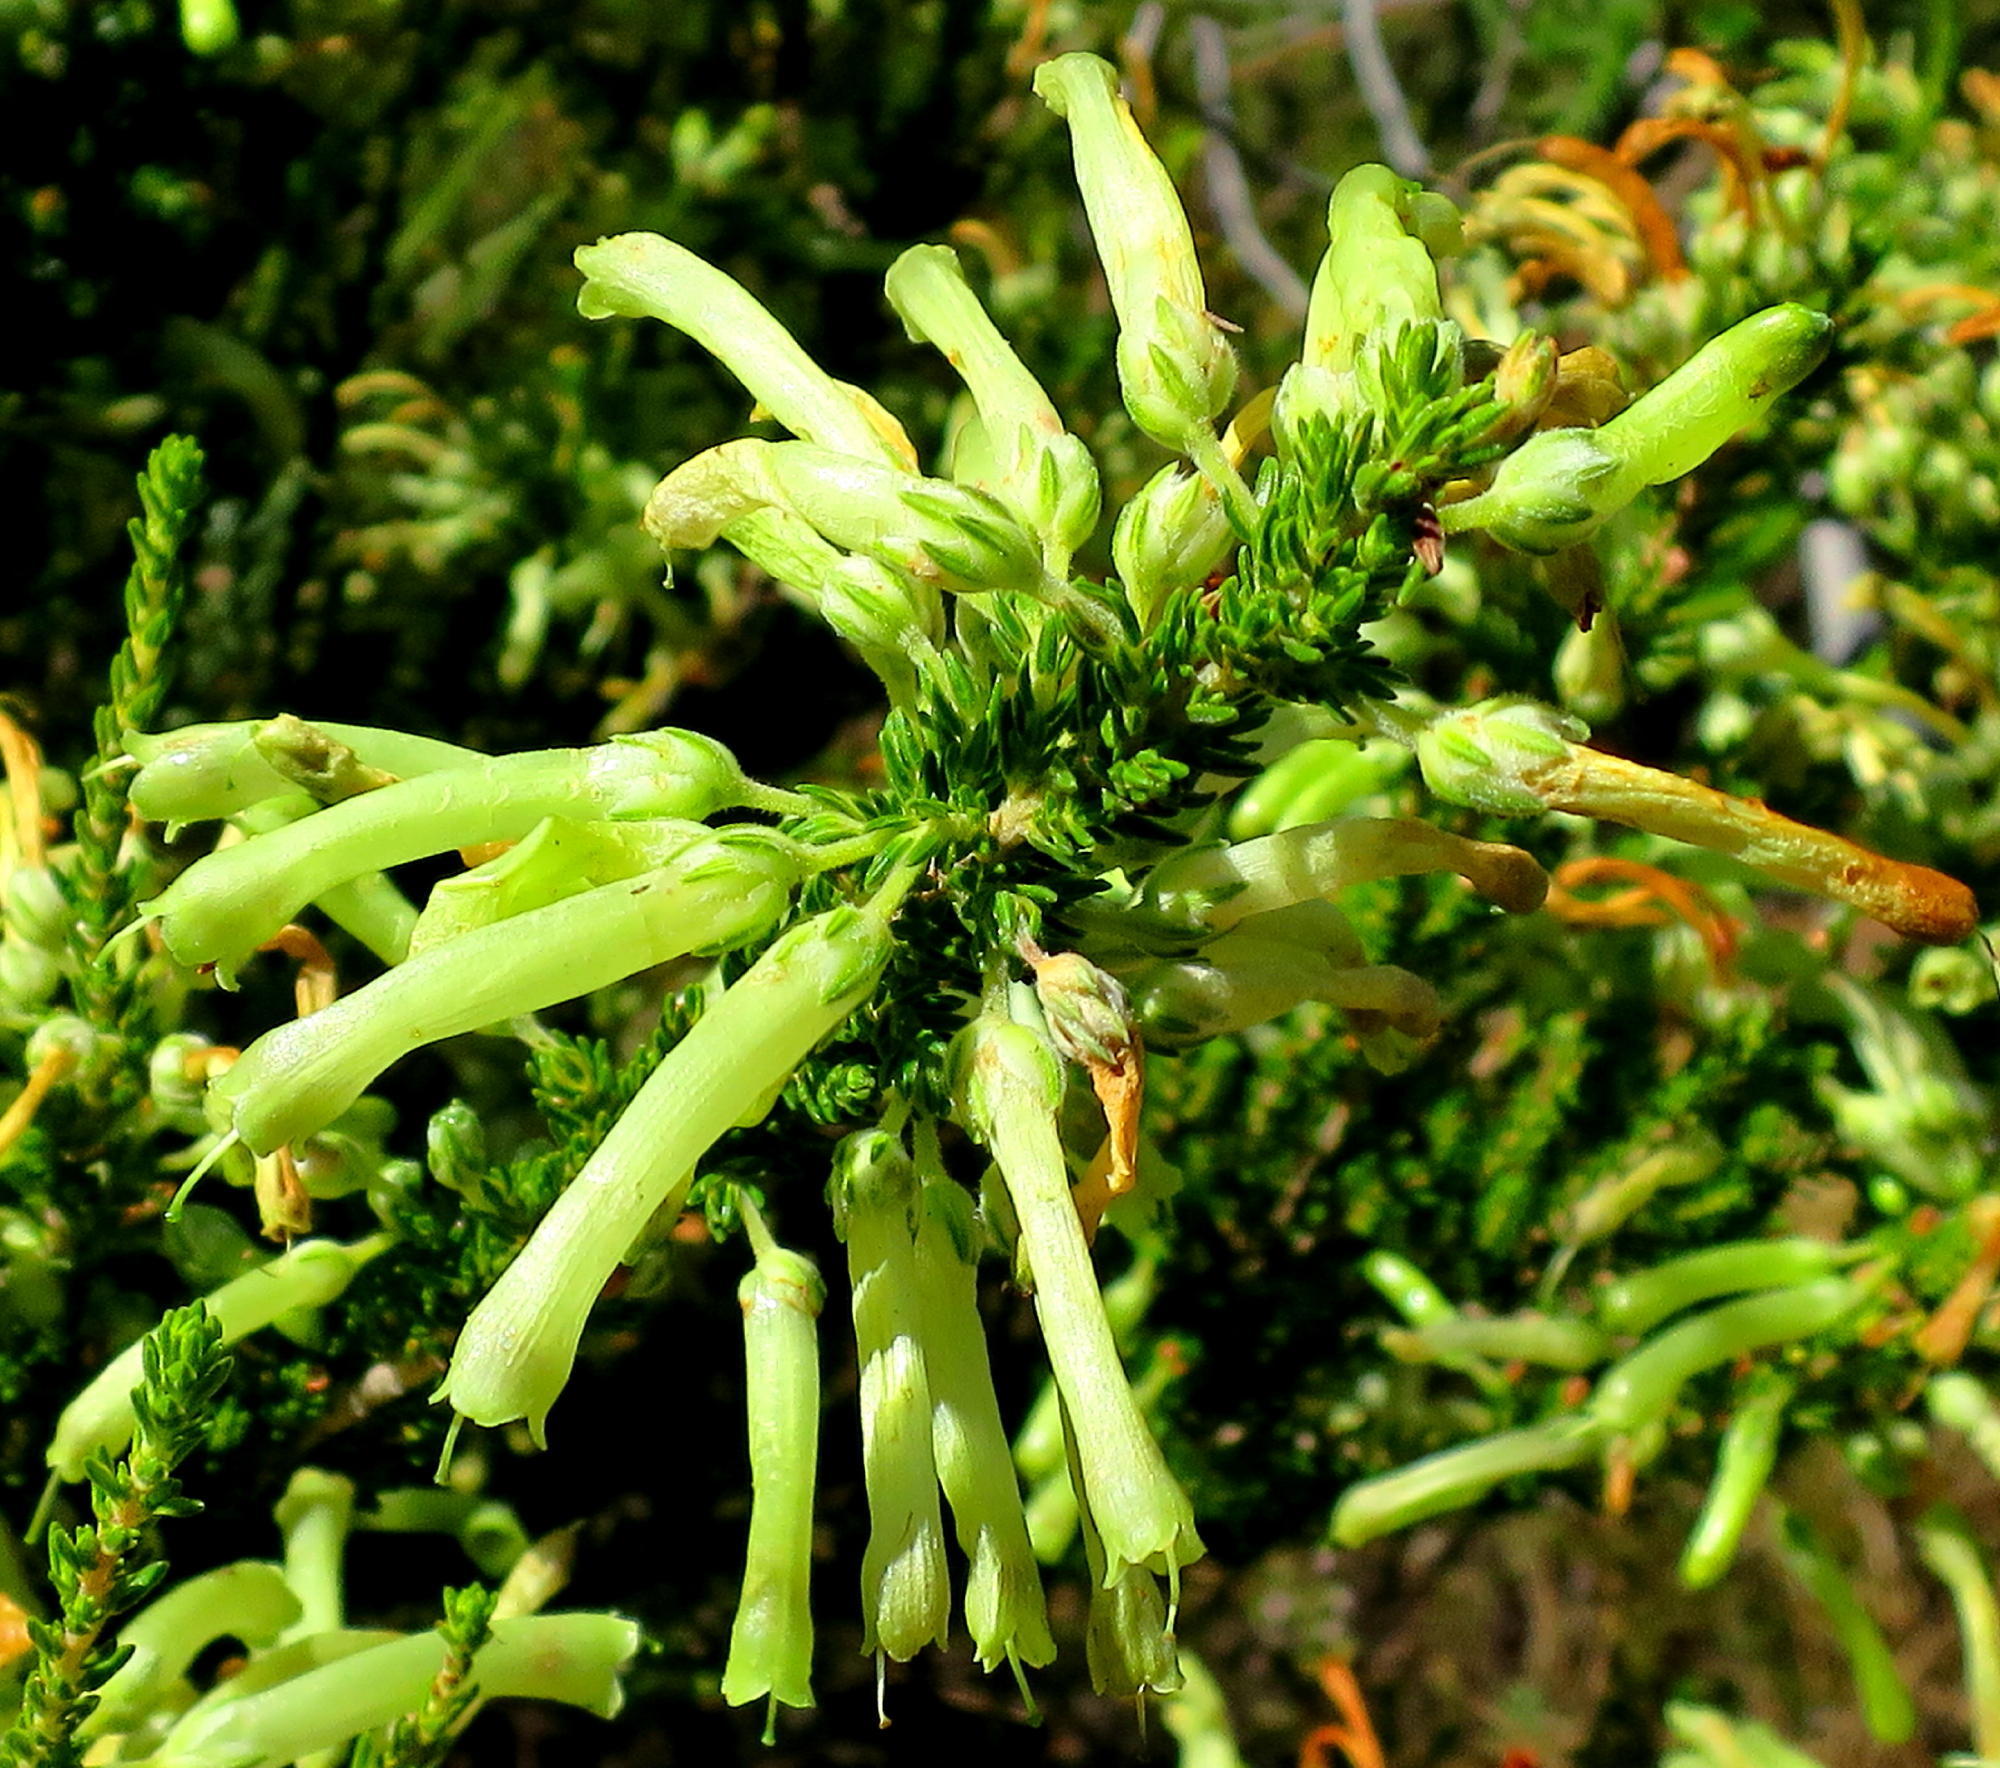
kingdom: Plantae
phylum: Tracheophyta
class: Magnoliopsida
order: Ericales
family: Ericaceae
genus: Erica
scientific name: Erica discolor
